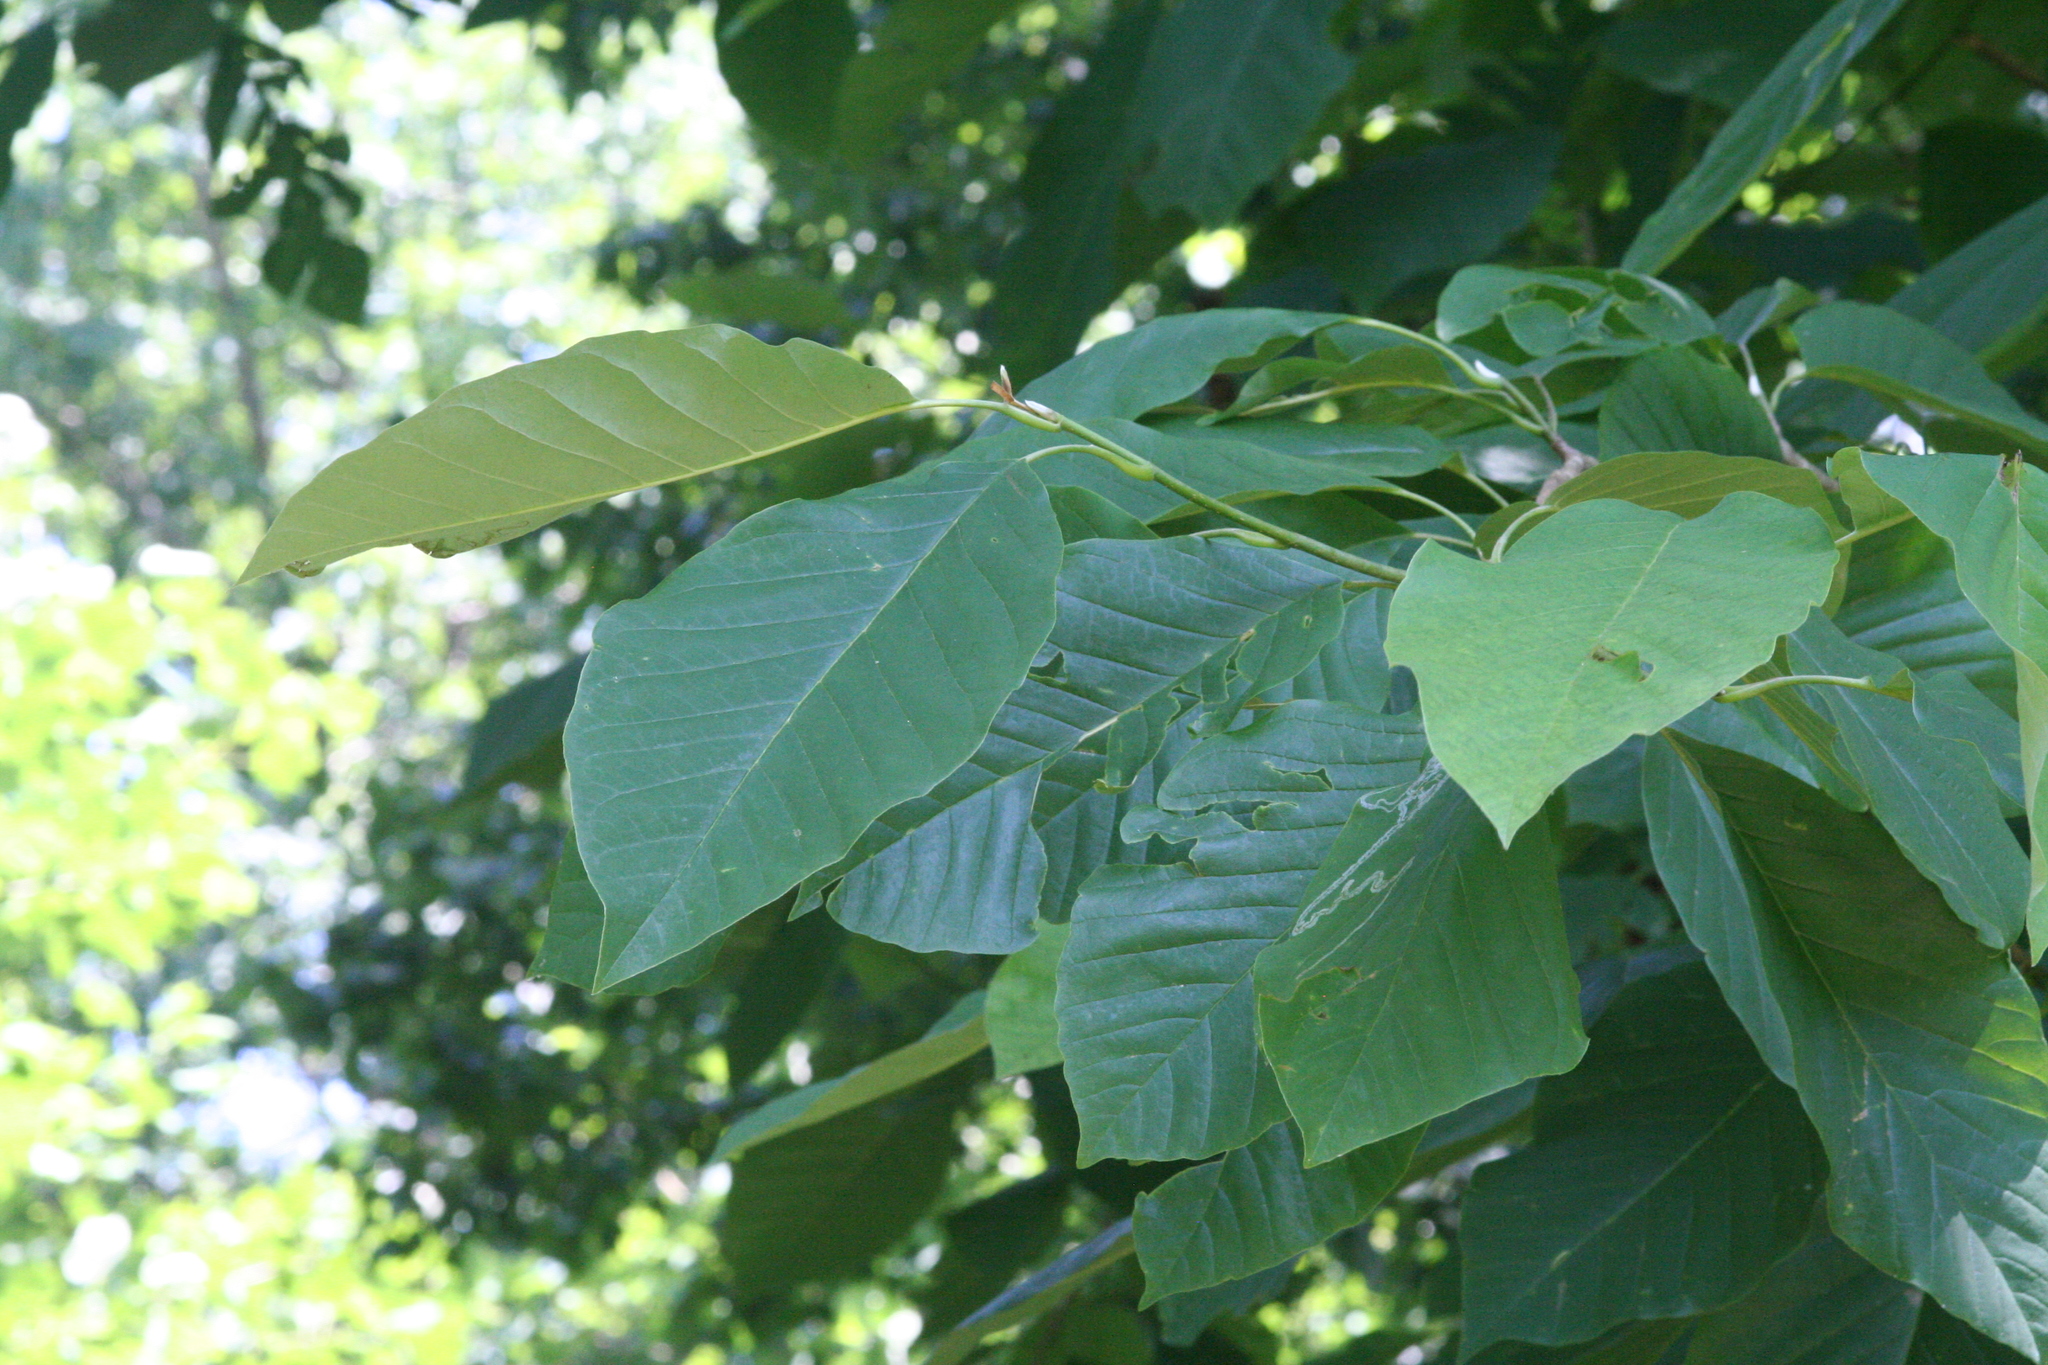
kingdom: Plantae
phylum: Tracheophyta
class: Magnoliopsida
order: Magnoliales
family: Magnoliaceae
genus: Magnolia
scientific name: Magnolia acuminata
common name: Cucumber magnolia
